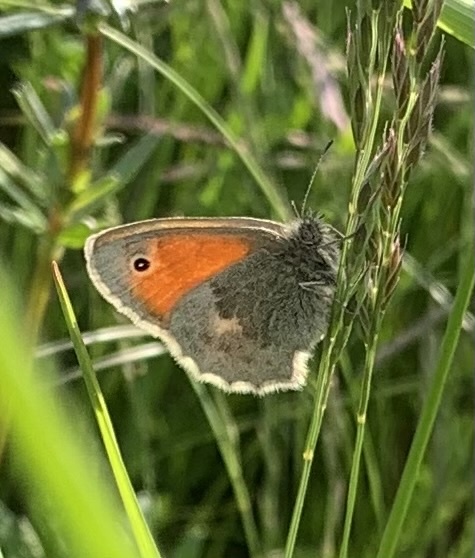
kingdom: Animalia
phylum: Arthropoda
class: Insecta
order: Lepidoptera
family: Nymphalidae
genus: Coenonympha
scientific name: Coenonympha pamphilus
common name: Small heath
